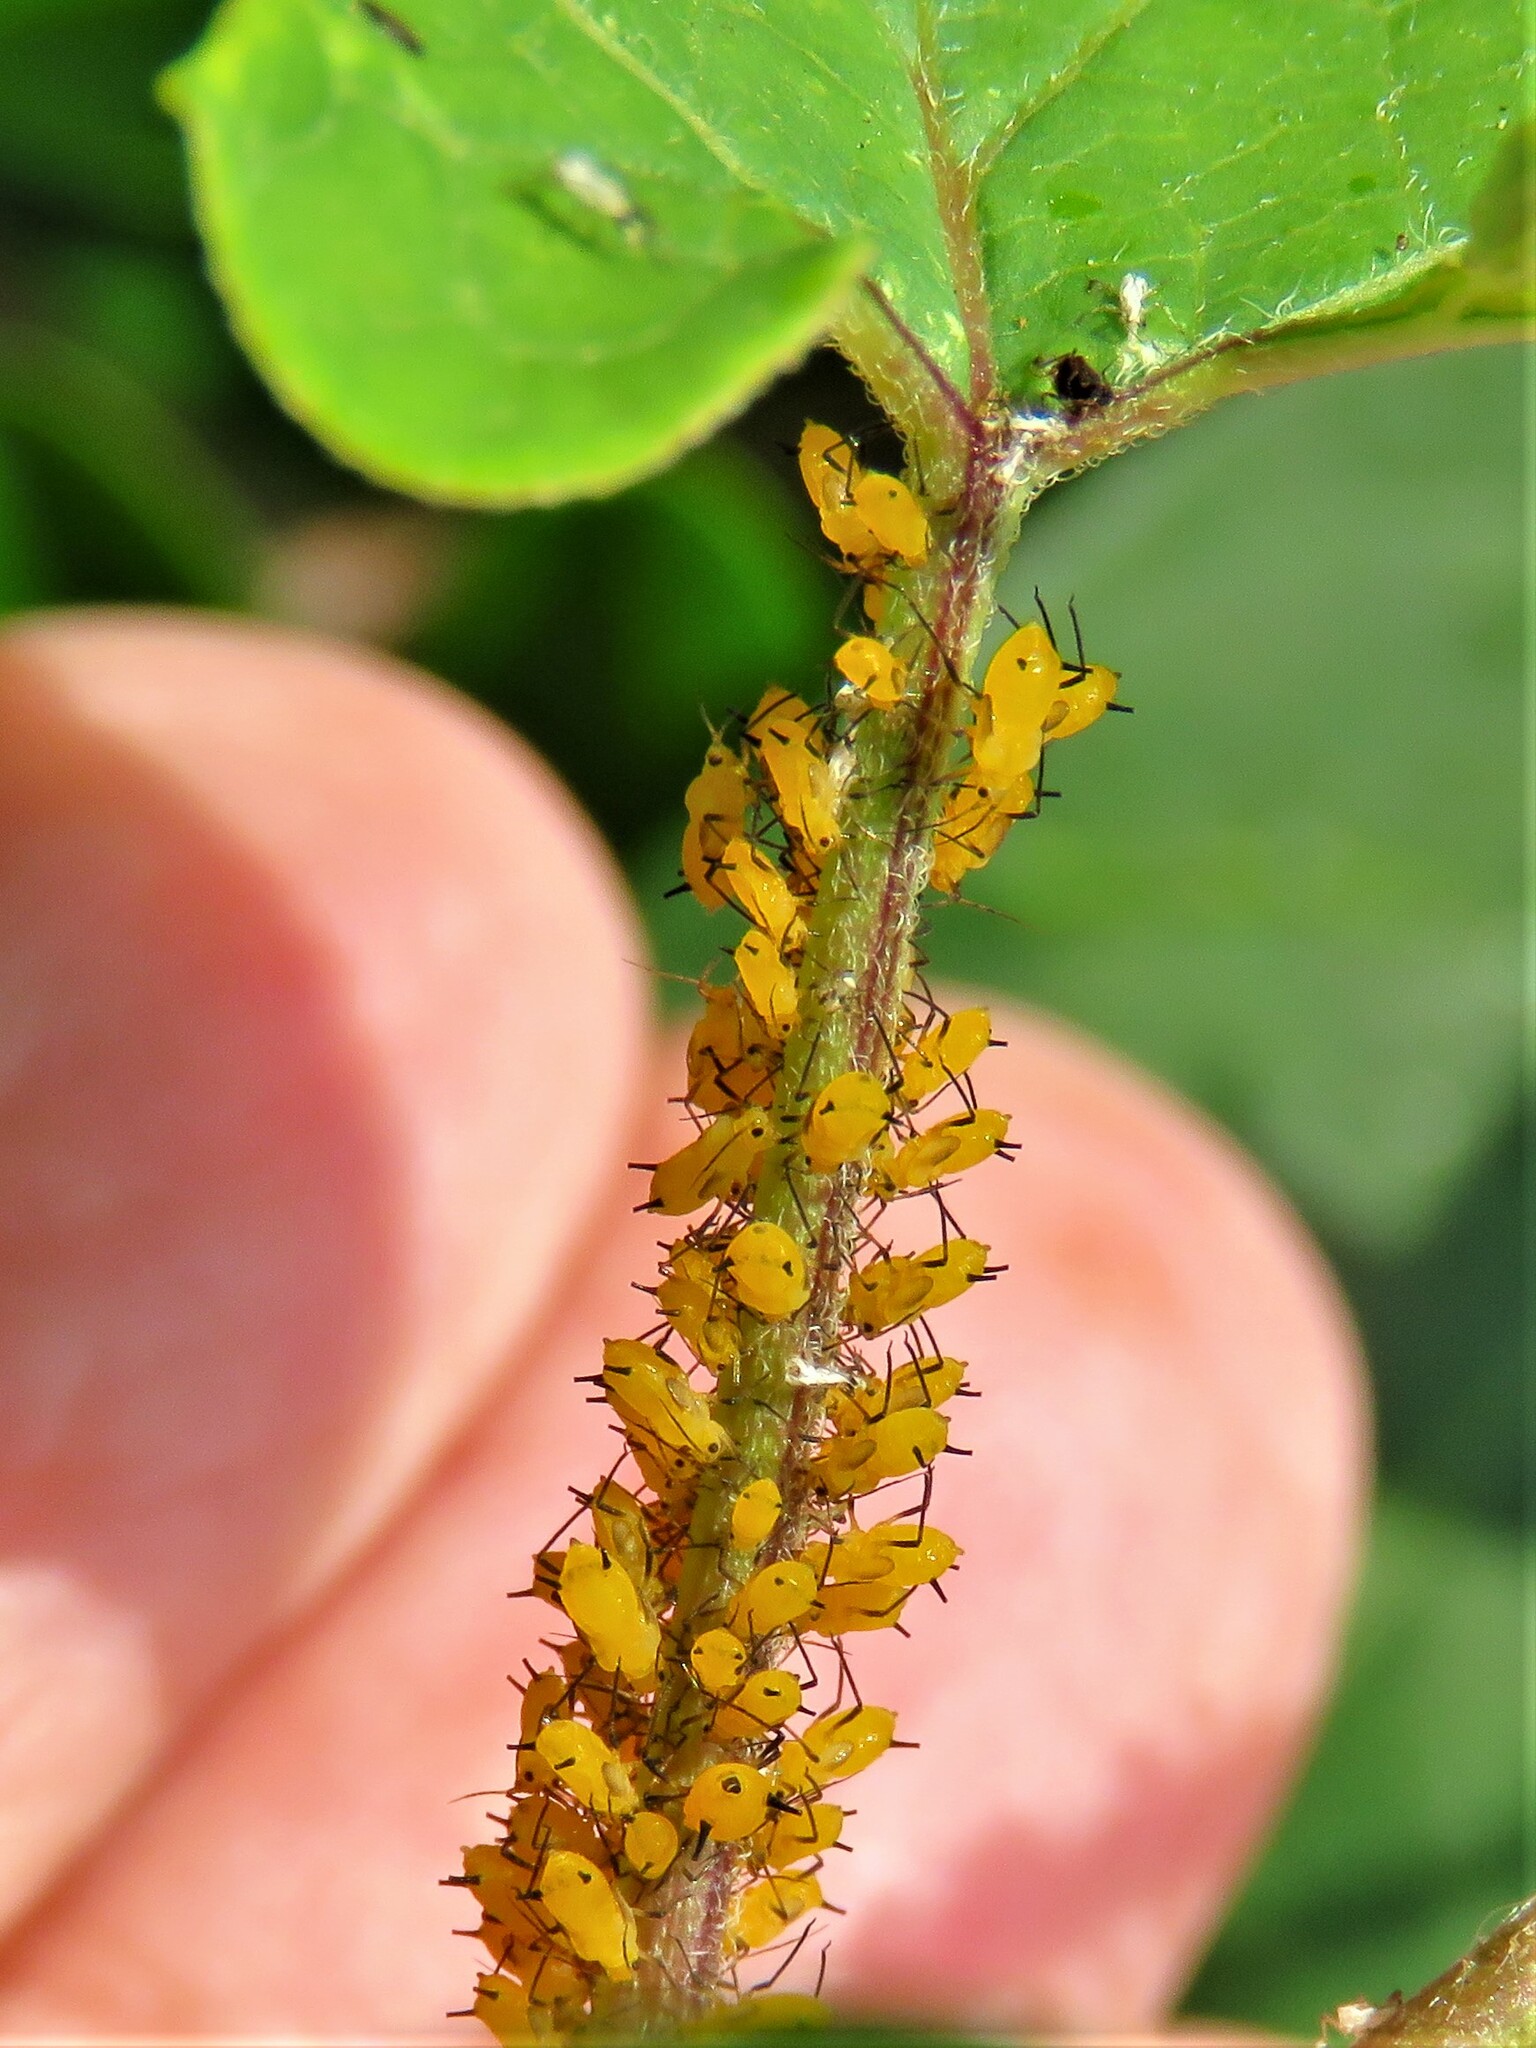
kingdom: Animalia
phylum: Arthropoda
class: Insecta
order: Hemiptera
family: Aphididae
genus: Aphis
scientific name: Aphis nerii
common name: Oleander aphid
